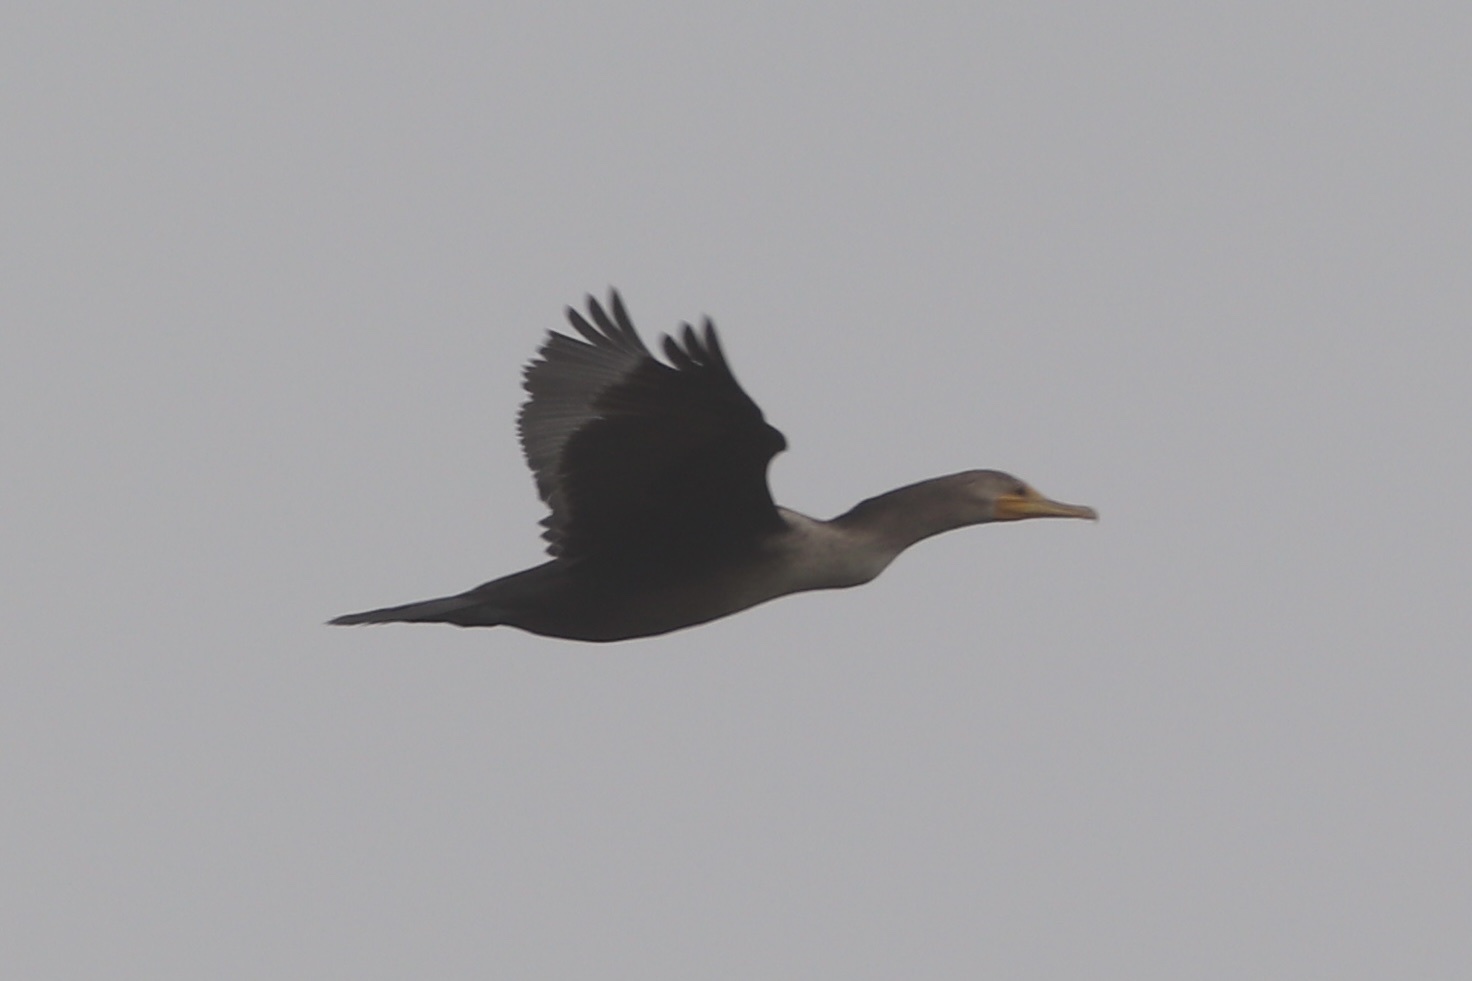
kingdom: Animalia
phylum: Chordata
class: Aves
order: Suliformes
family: Phalacrocoracidae
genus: Phalacrocorax
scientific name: Phalacrocorax auritus
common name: Double-crested cormorant
